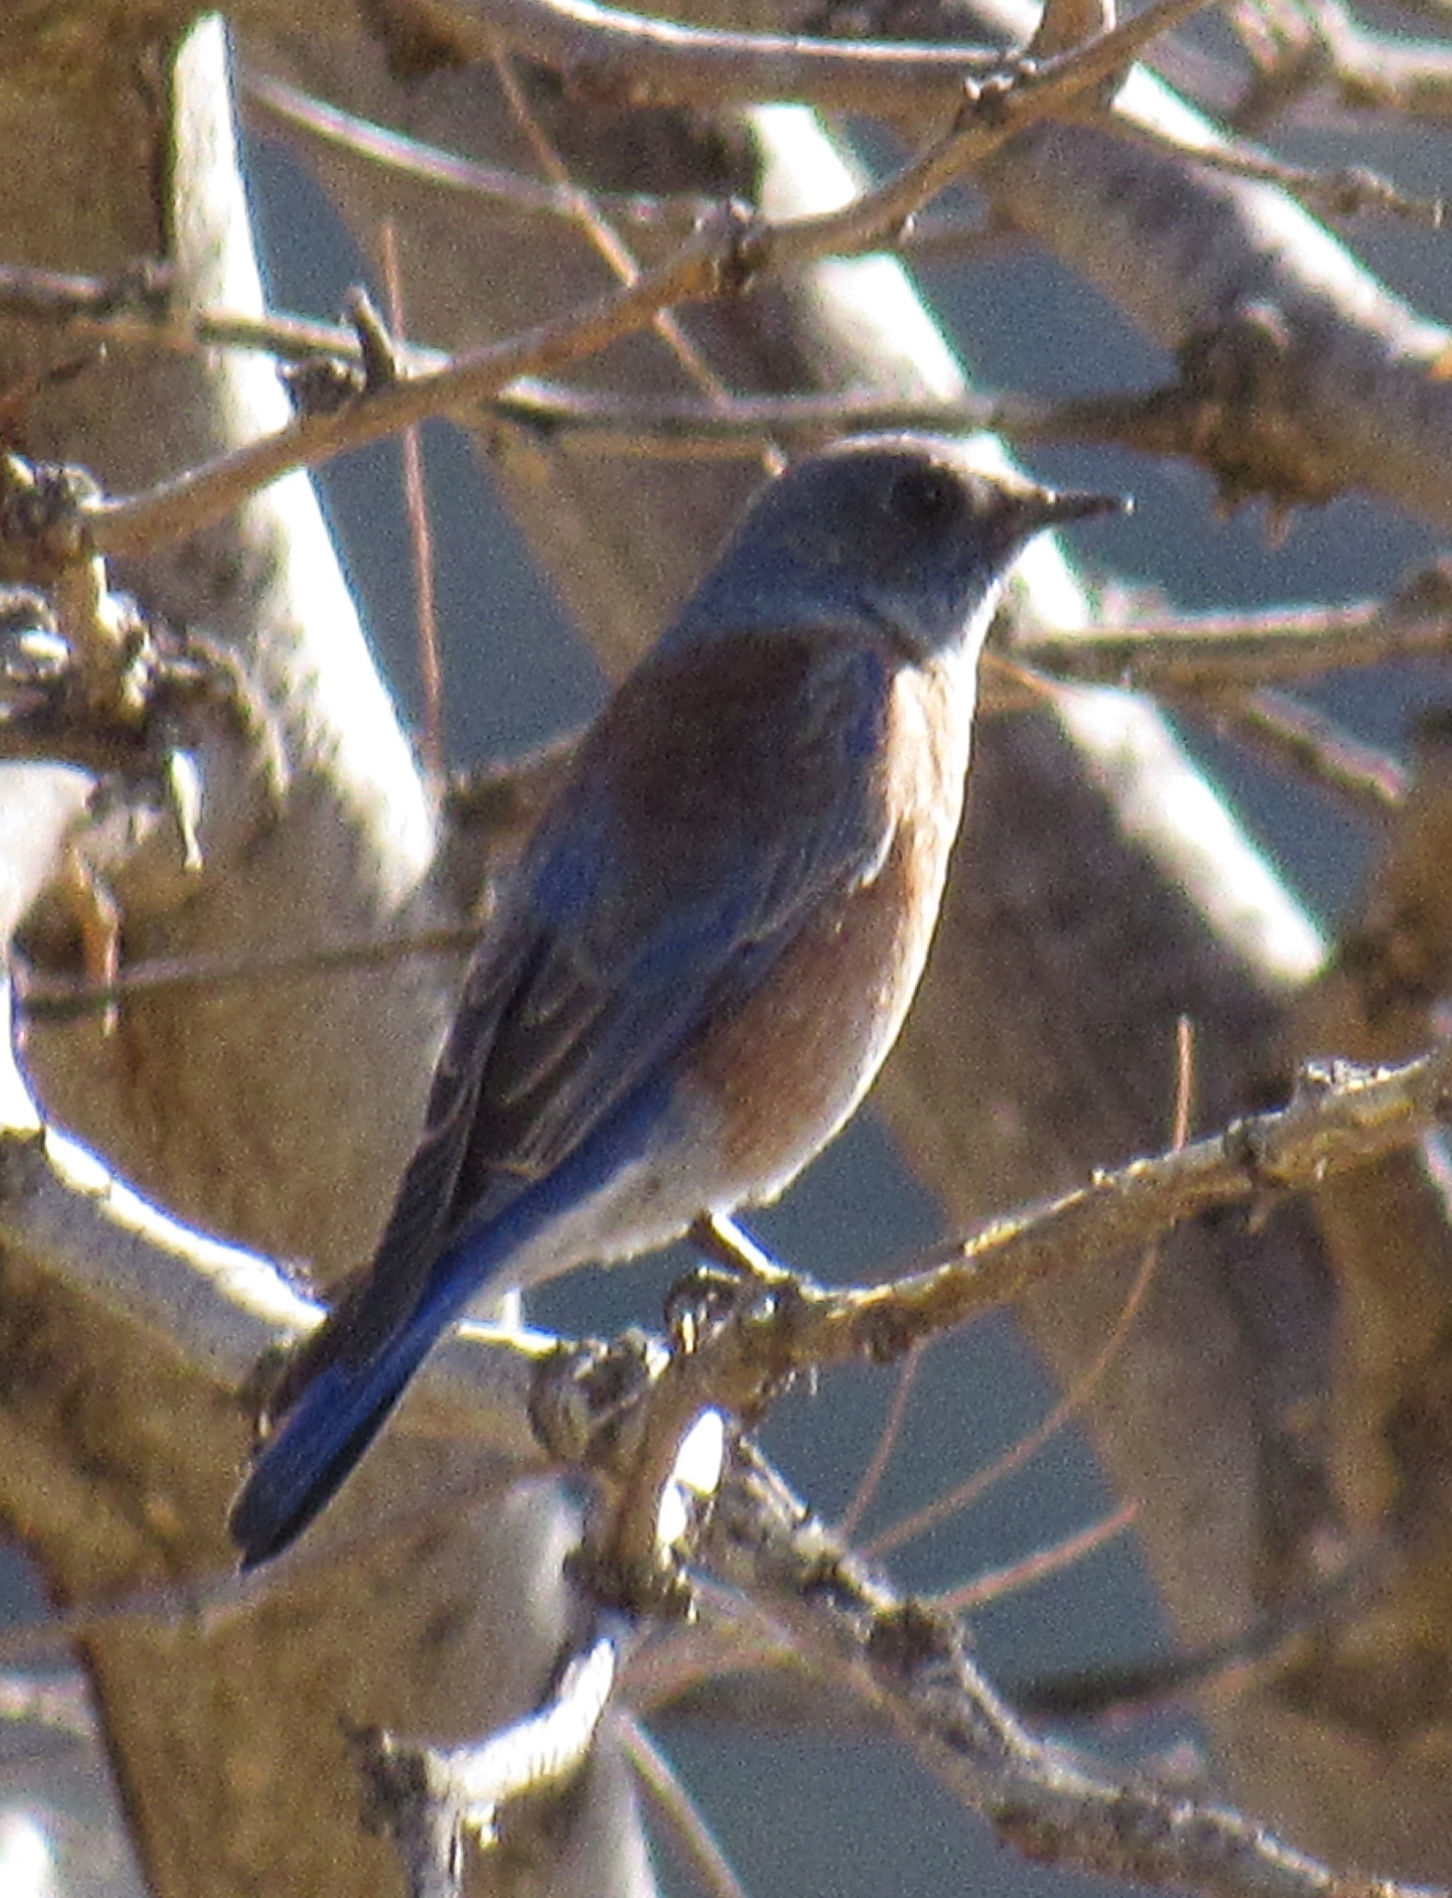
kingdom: Animalia
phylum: Chordata
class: Aves
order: Passeriformes
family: Turdidae
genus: Sialia
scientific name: Sialia mexicana
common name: Western bluebird
